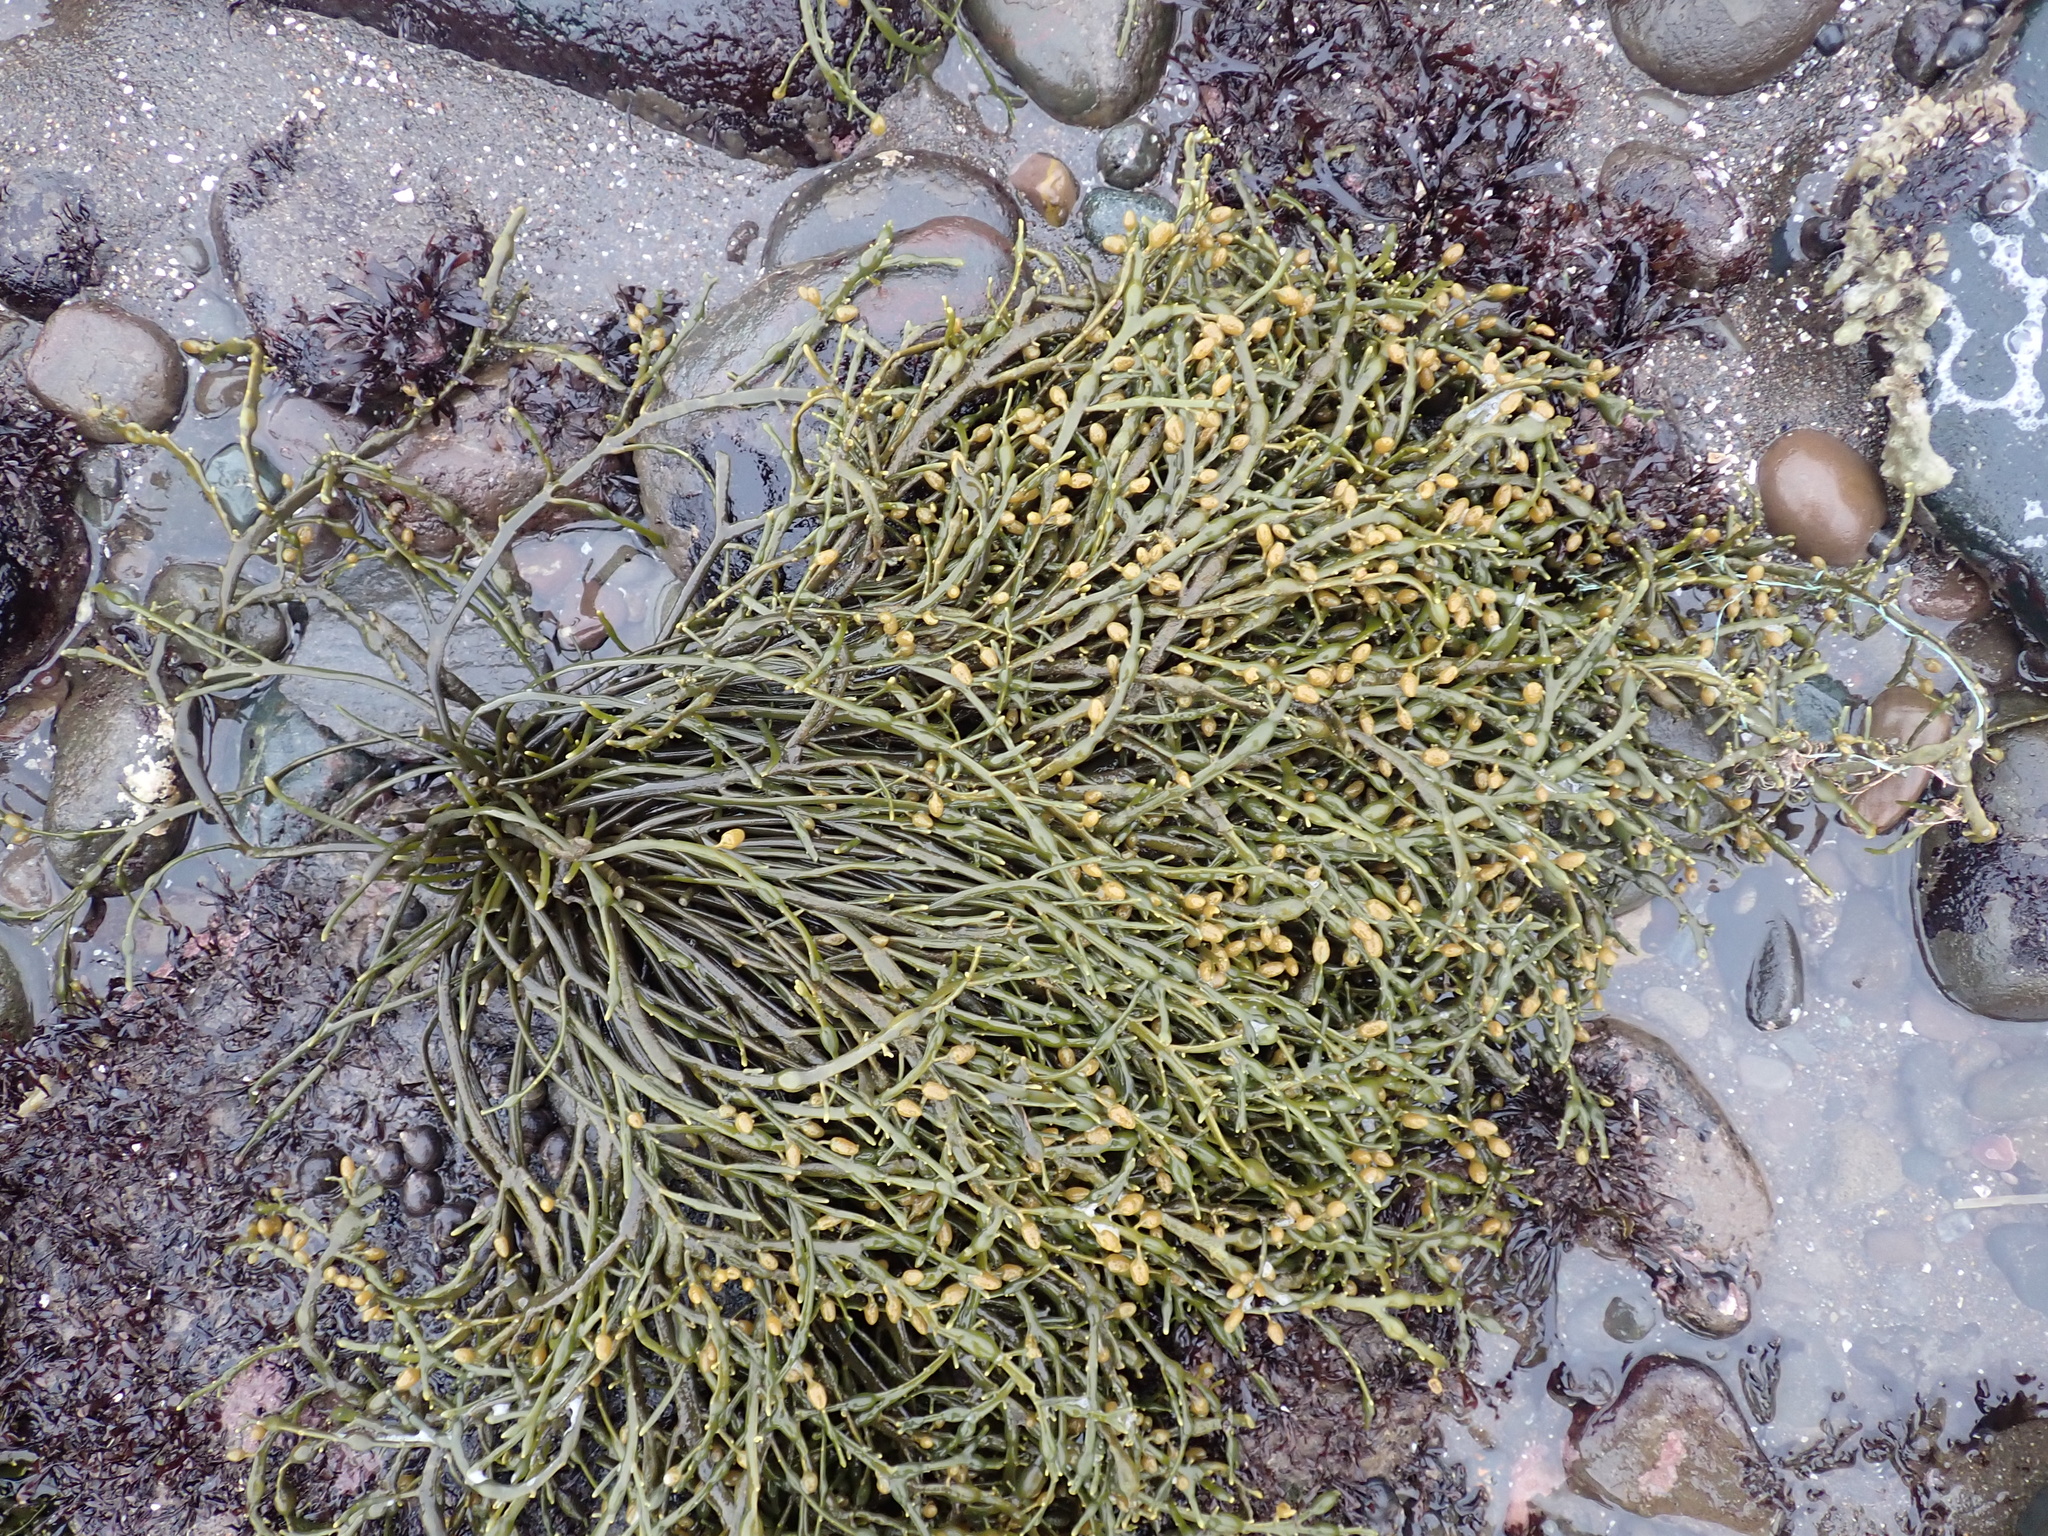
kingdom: Chromista
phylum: Ochrophyta
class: Phaeophyceae
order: Fucales
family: Fucaceae
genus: Ascophyllum
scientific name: Ascophyllum nodosum
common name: Knotted wrack
